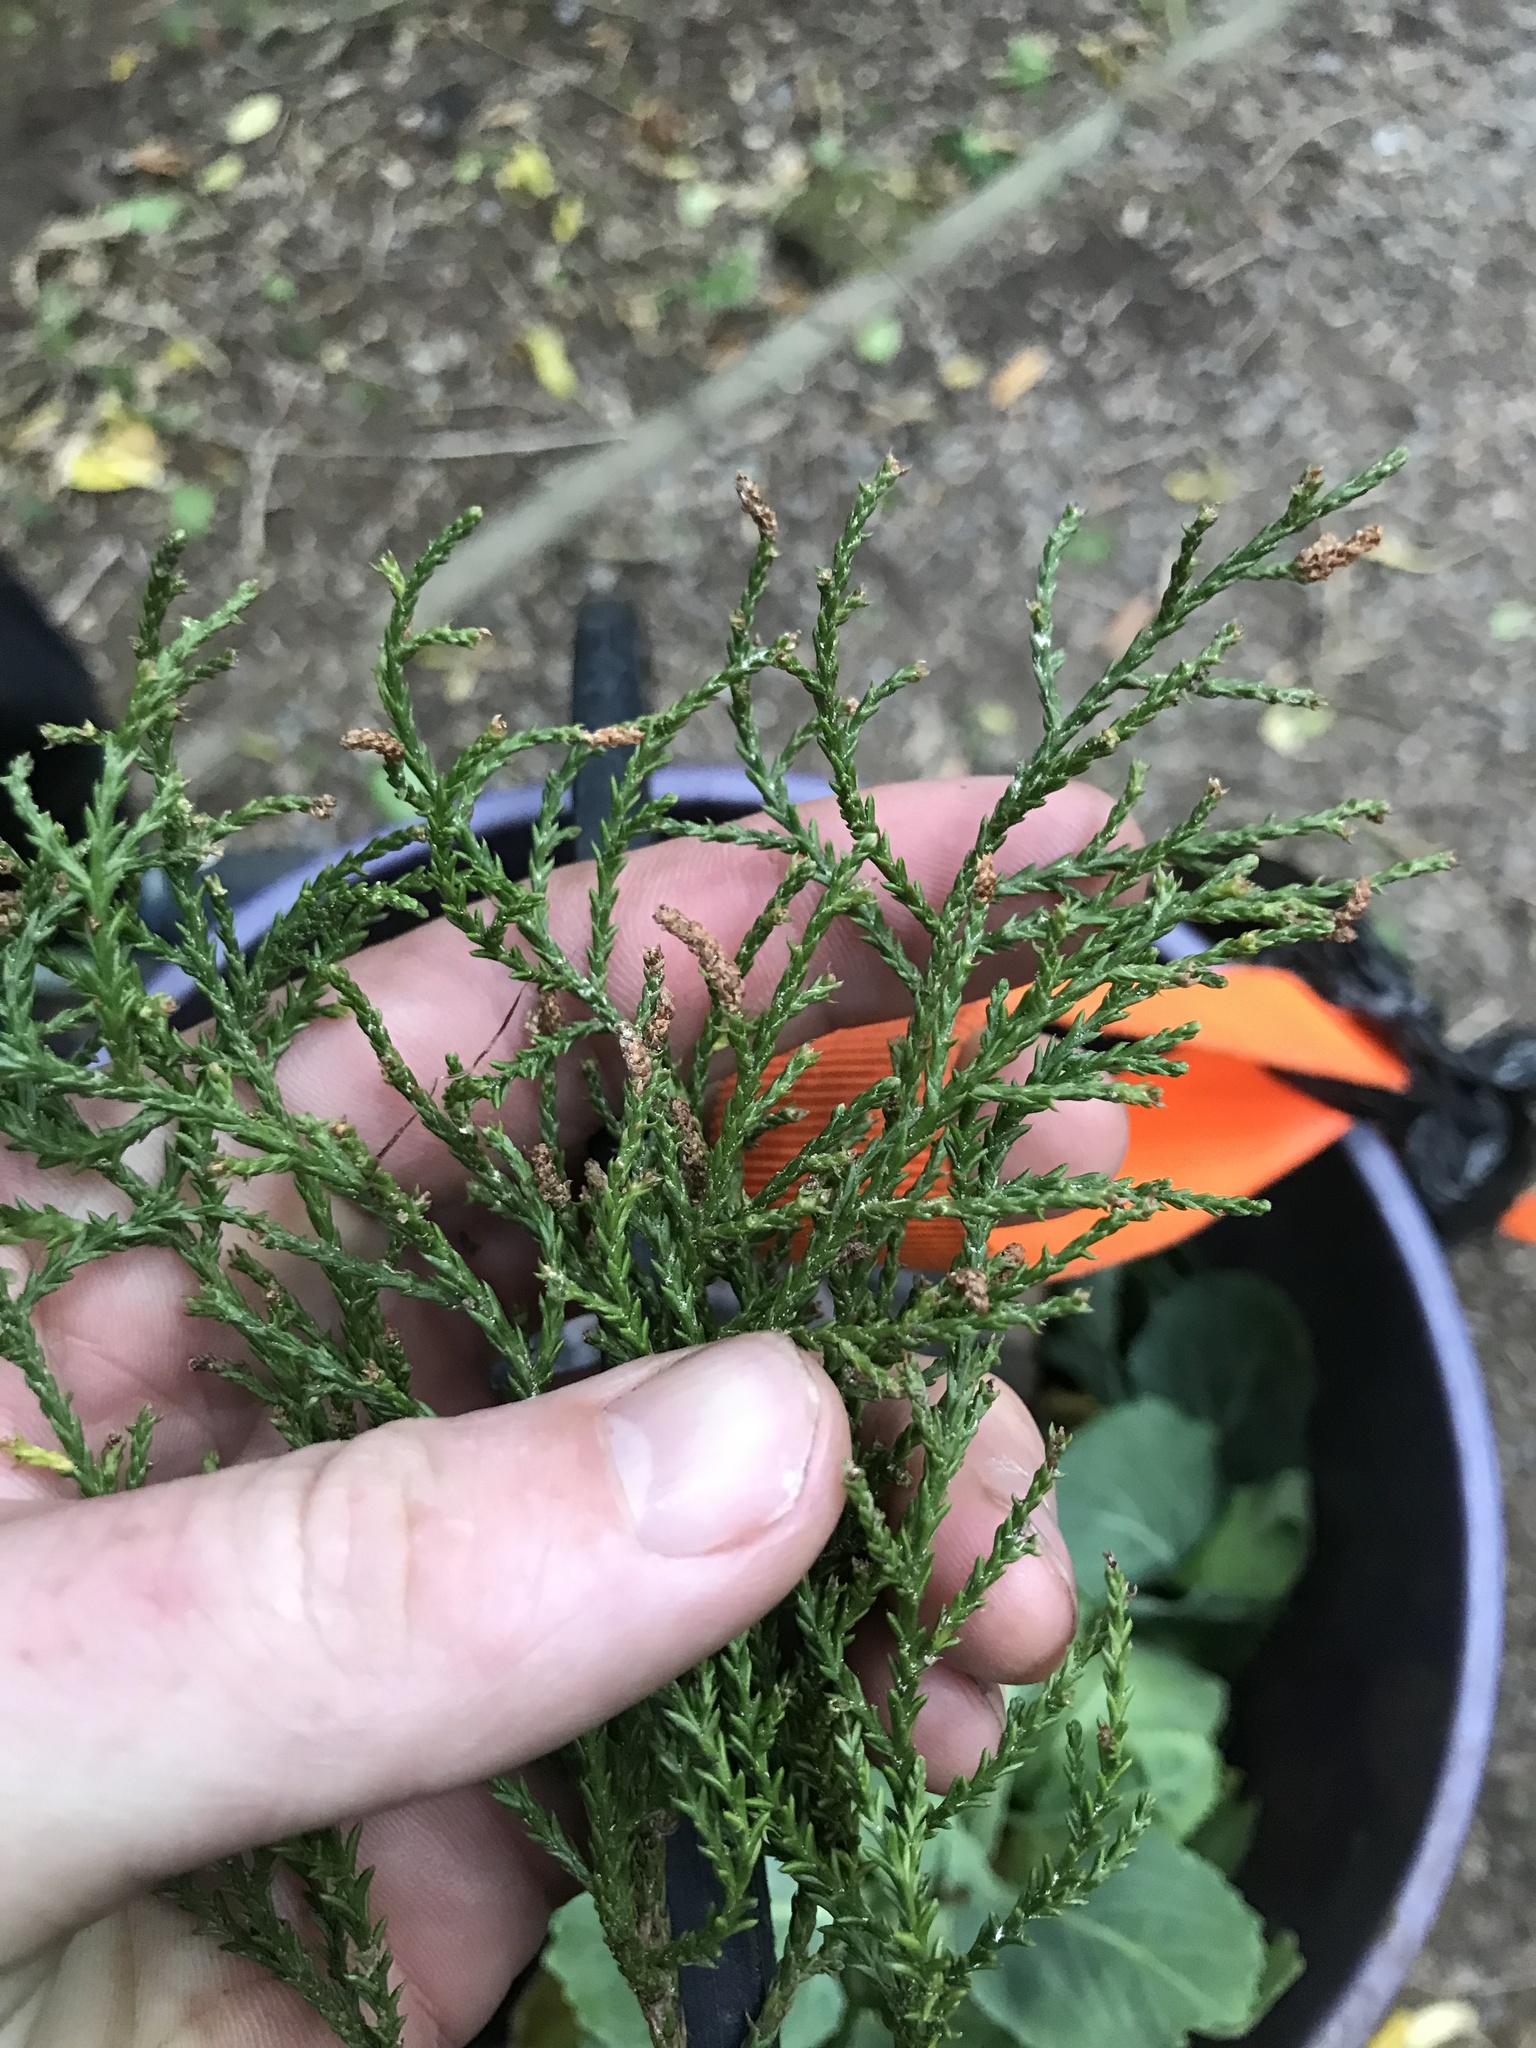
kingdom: Plantae
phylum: Tracheophyta
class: Pinopsida
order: Pinales
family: Podocarpaceae
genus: Dacrydium
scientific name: Dacrydium cupressinum
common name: Red pine
